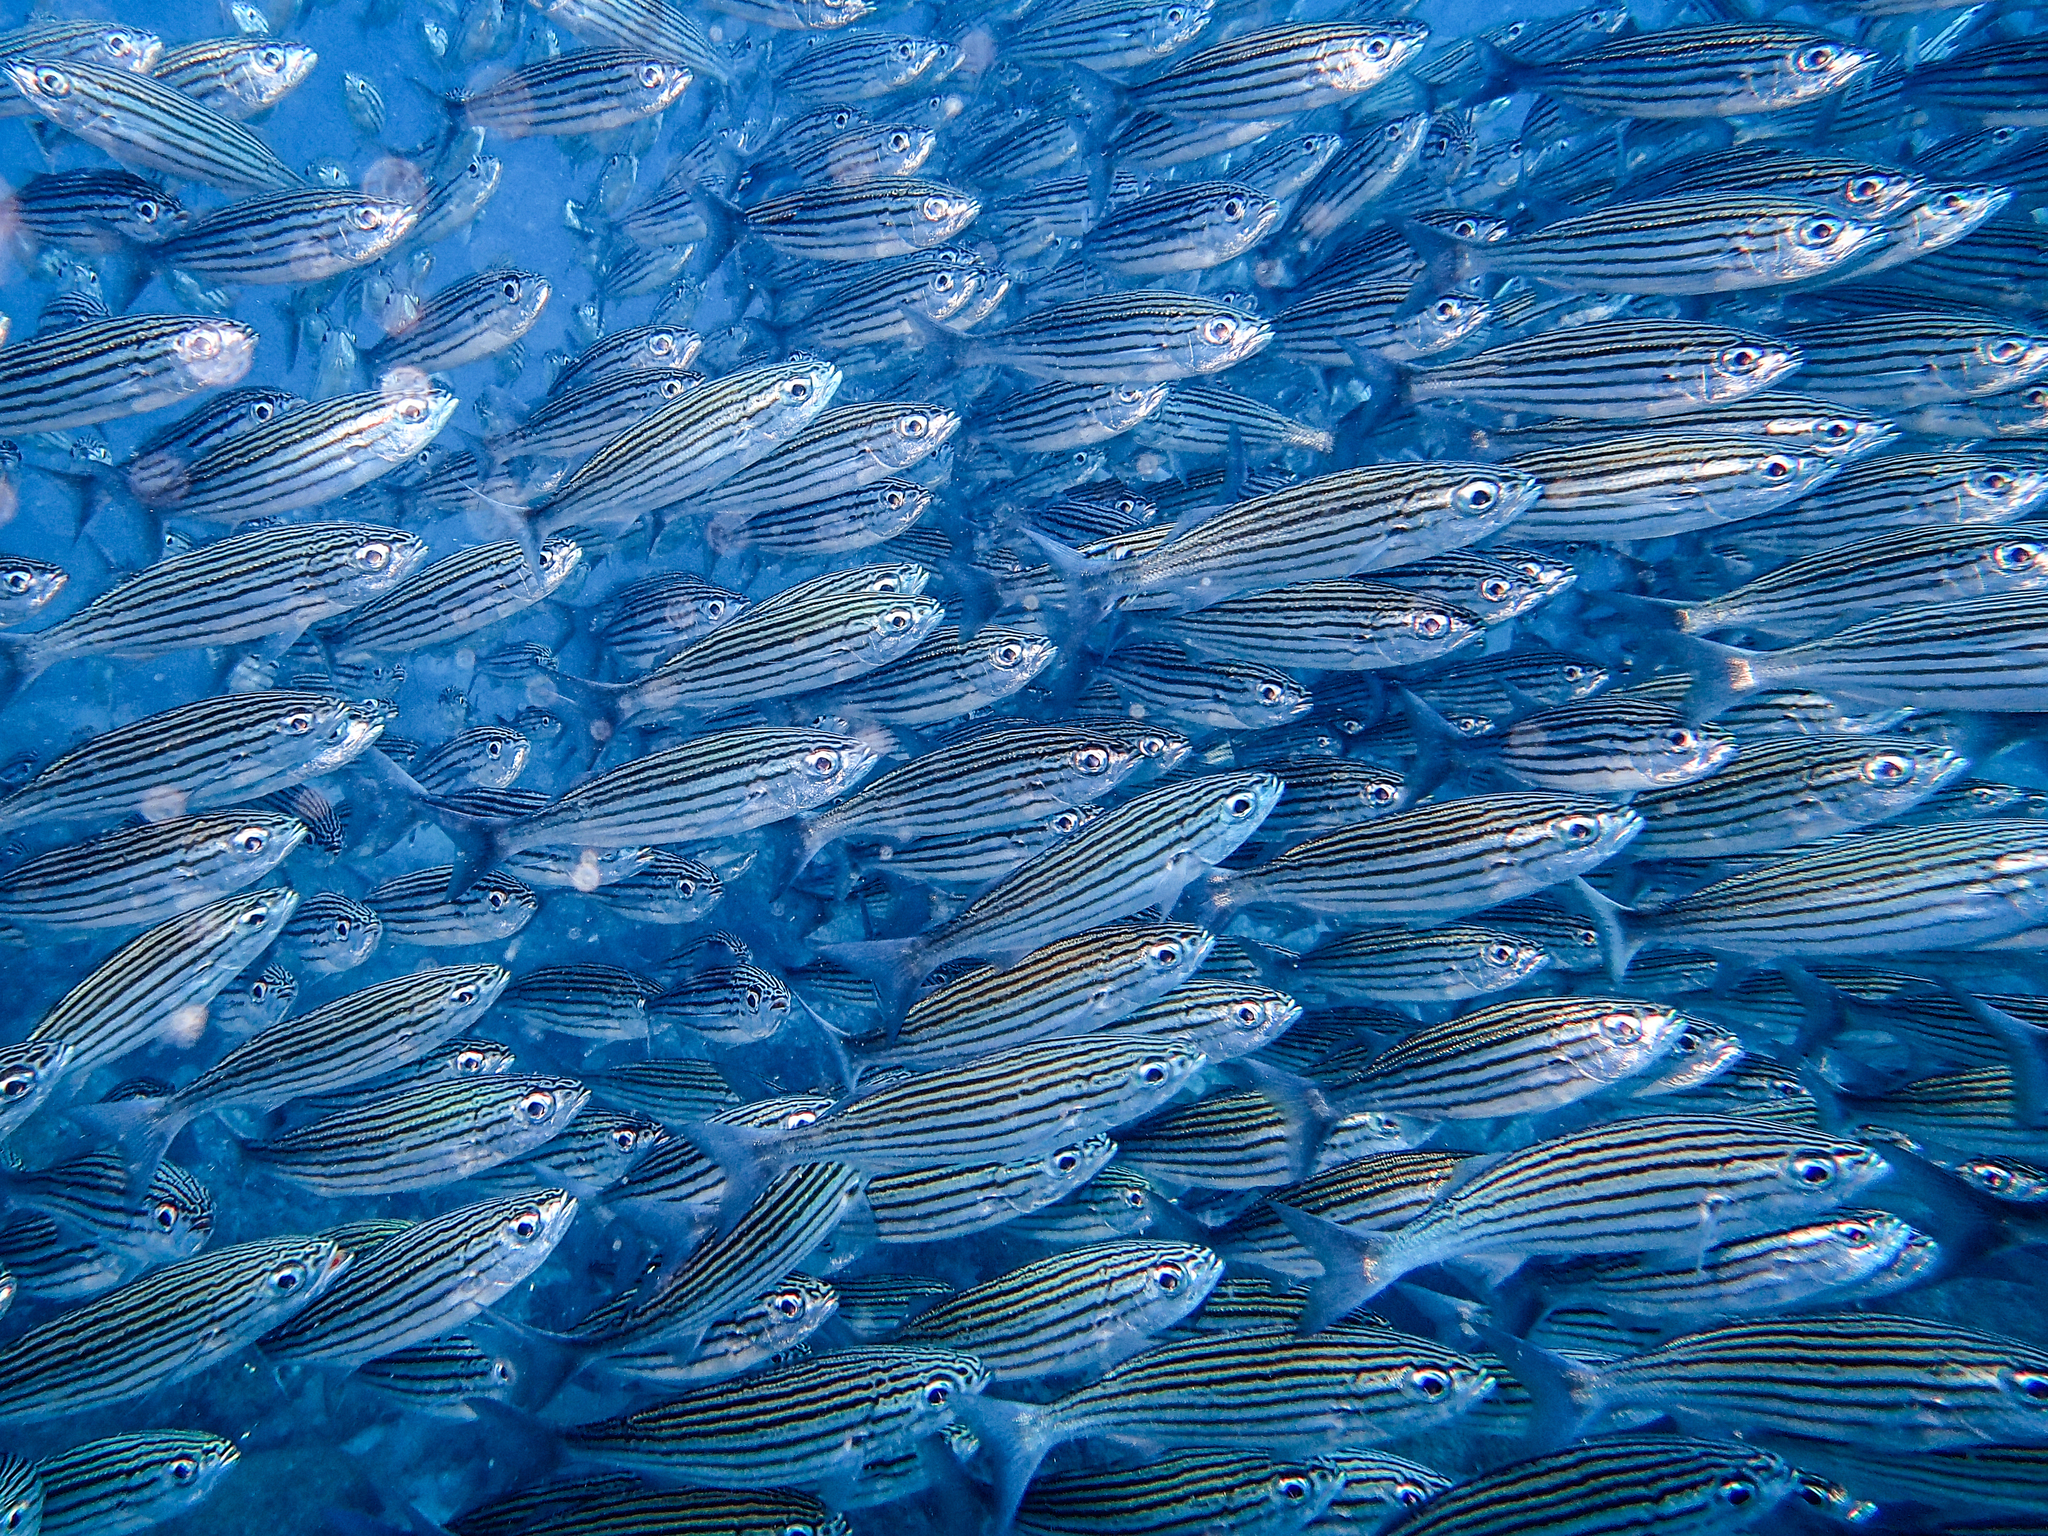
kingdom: Animalia
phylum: Chordata
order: Perciformes
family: Haemulidae
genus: Xenocys
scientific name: Xenocys jessiae
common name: Black-striped salema
